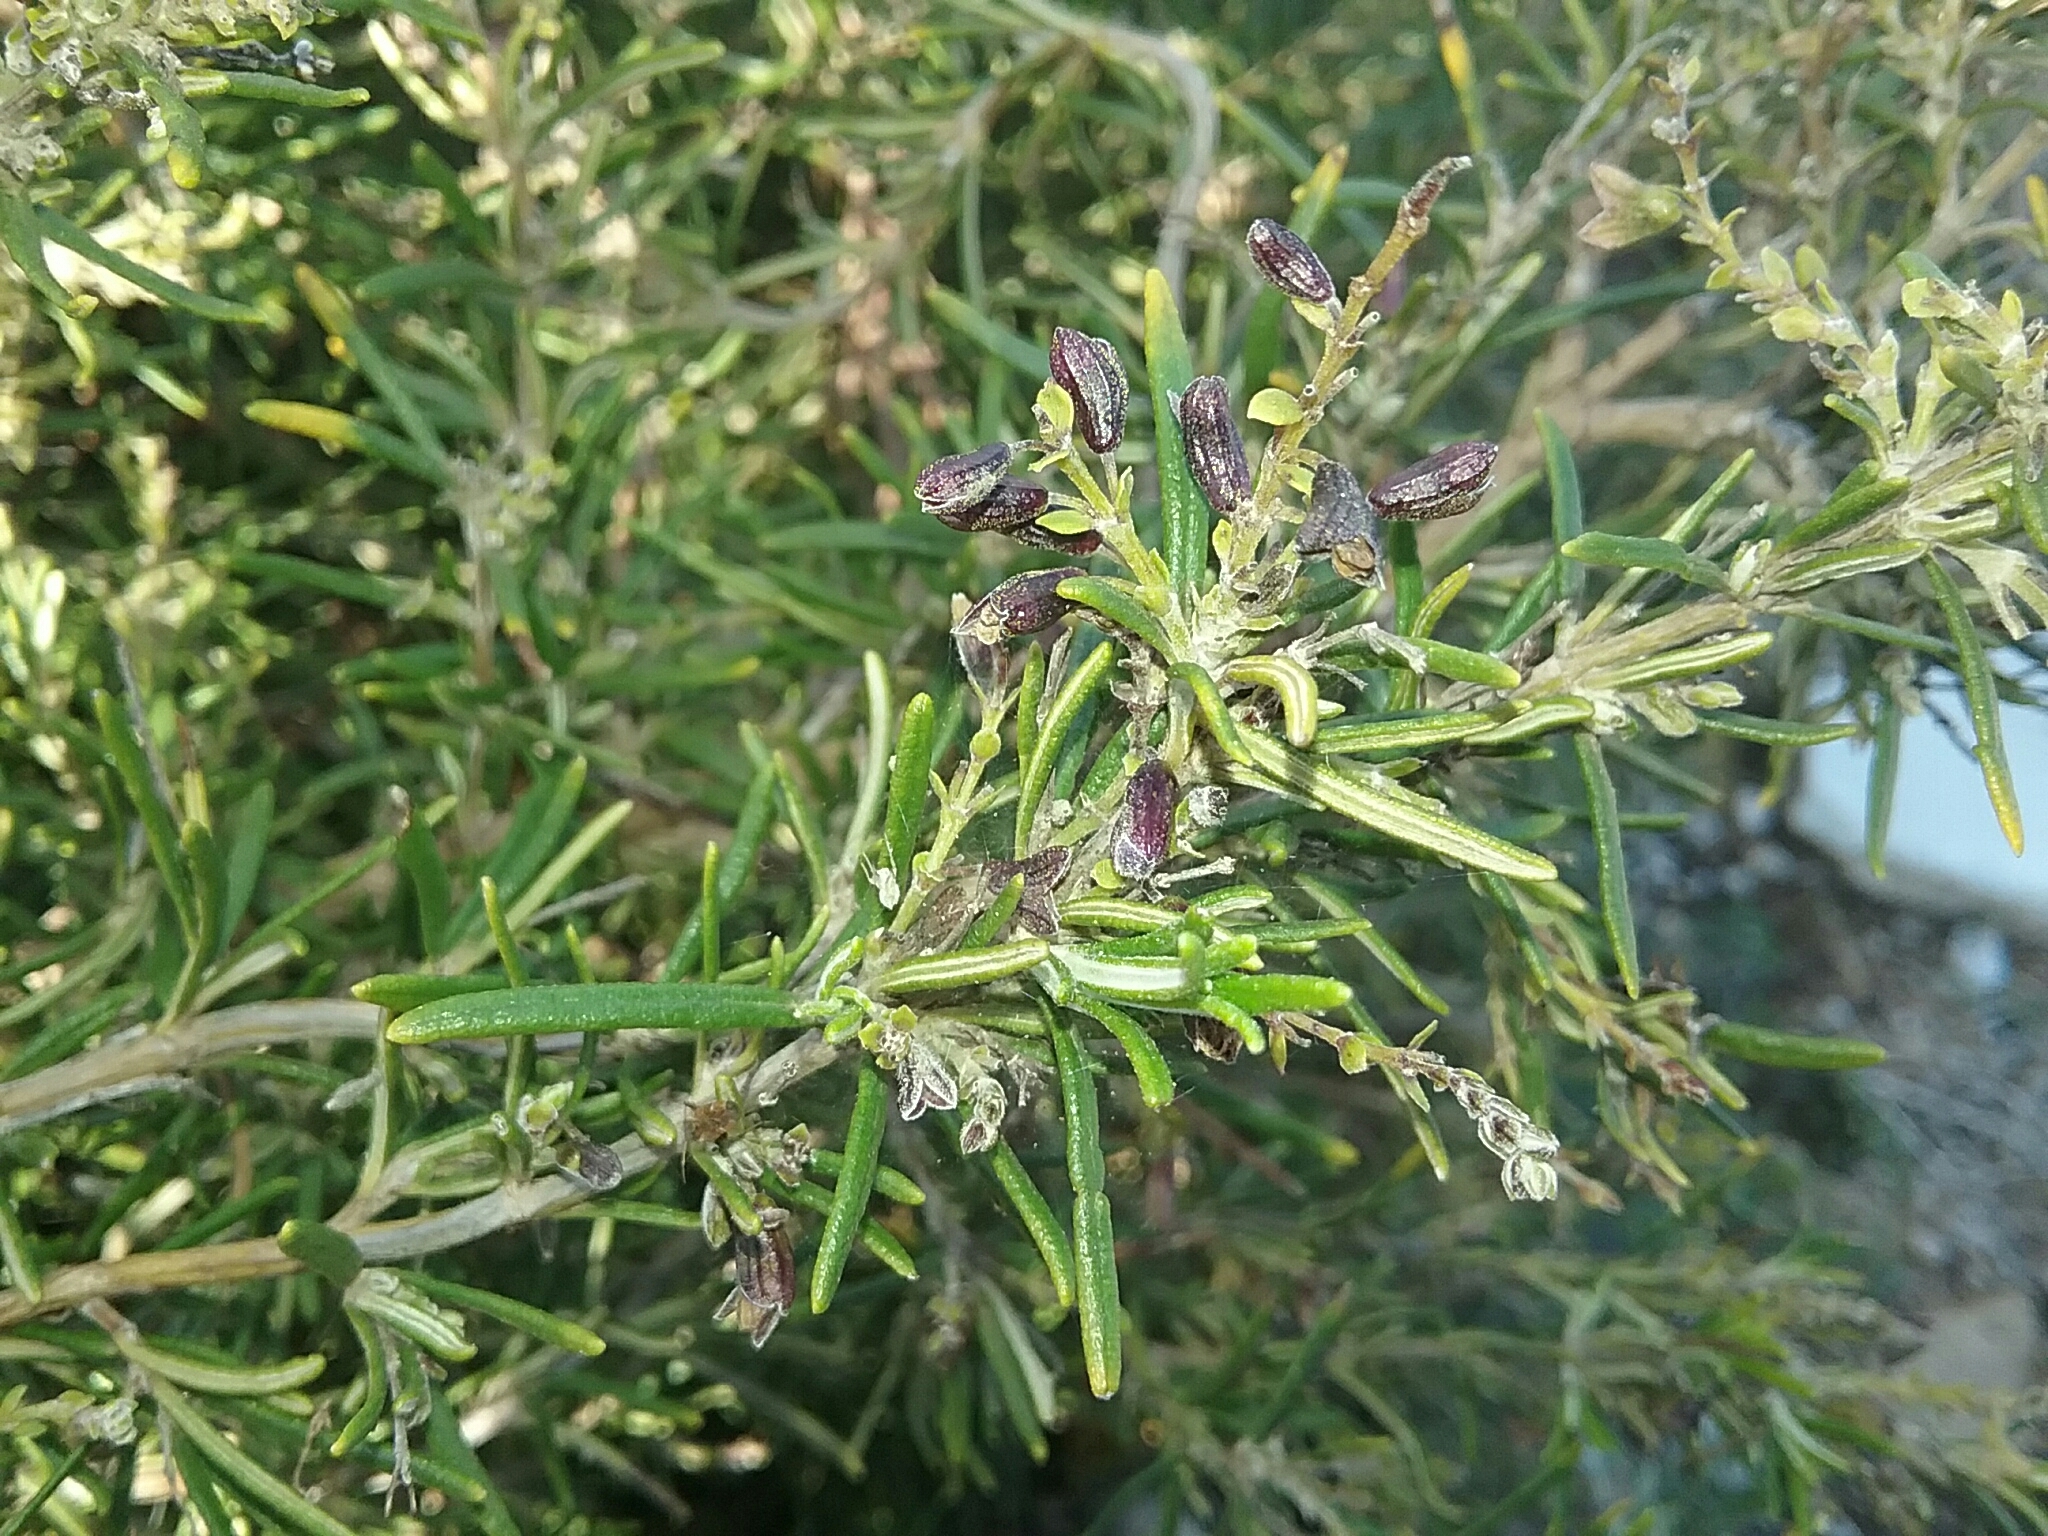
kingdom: Plantae
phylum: Tracheophyta
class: Magnoliopsida
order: Lamiales
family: Lamiaceae
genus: Salvia
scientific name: Salvia rosmarinus
